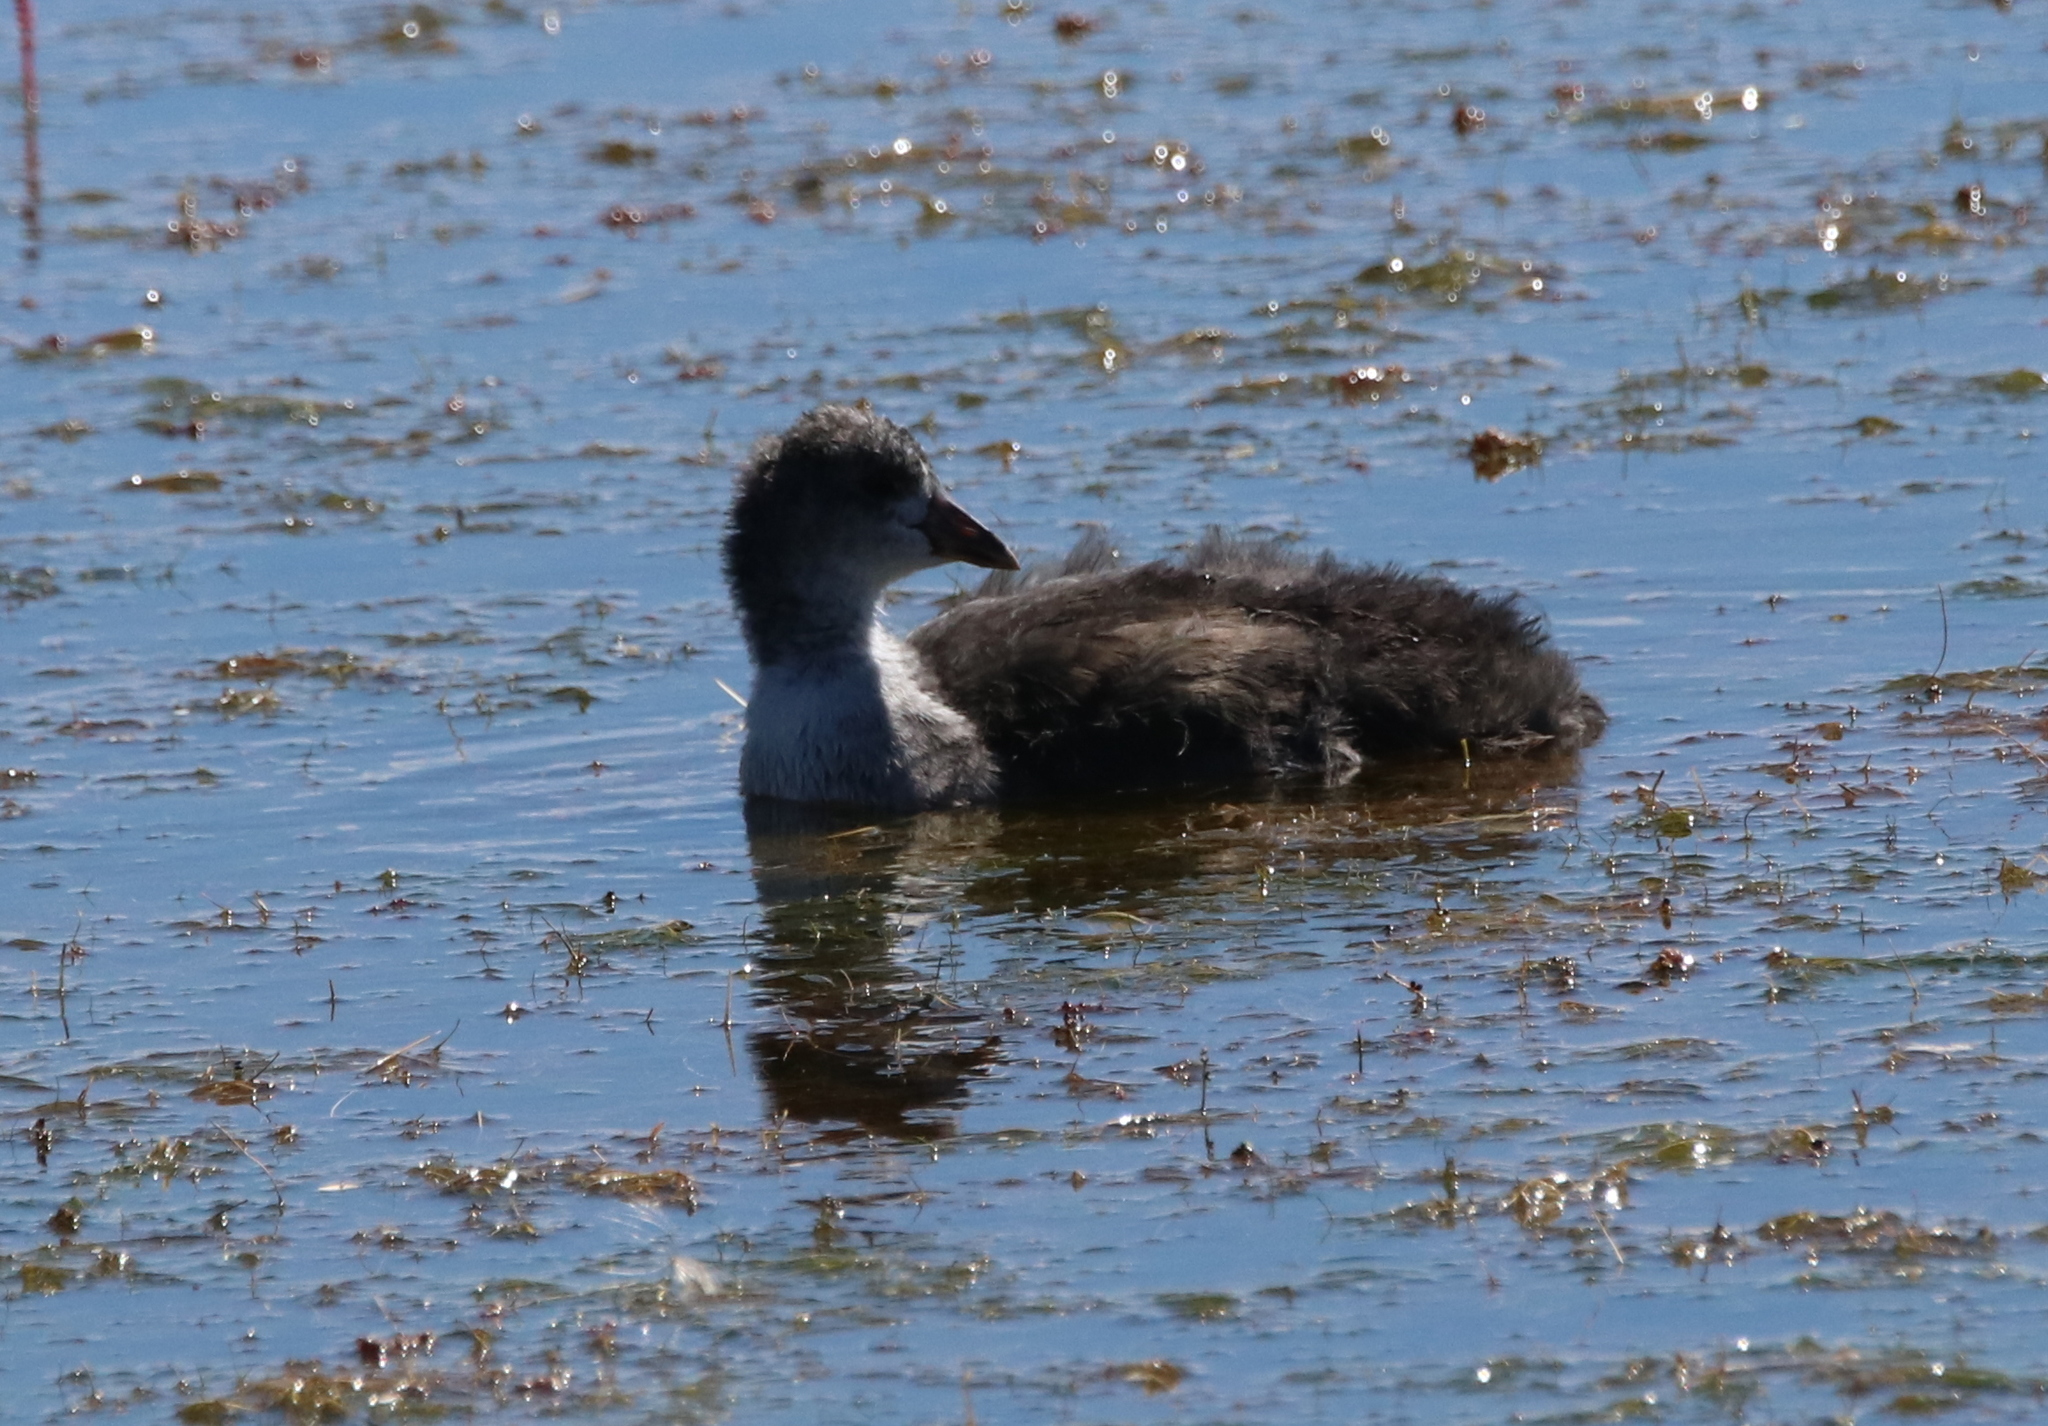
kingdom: Animalia
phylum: Chordata
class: Aves
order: Gruiformes
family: Rallidae
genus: Fulica
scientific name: Fulica americana
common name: American coot
